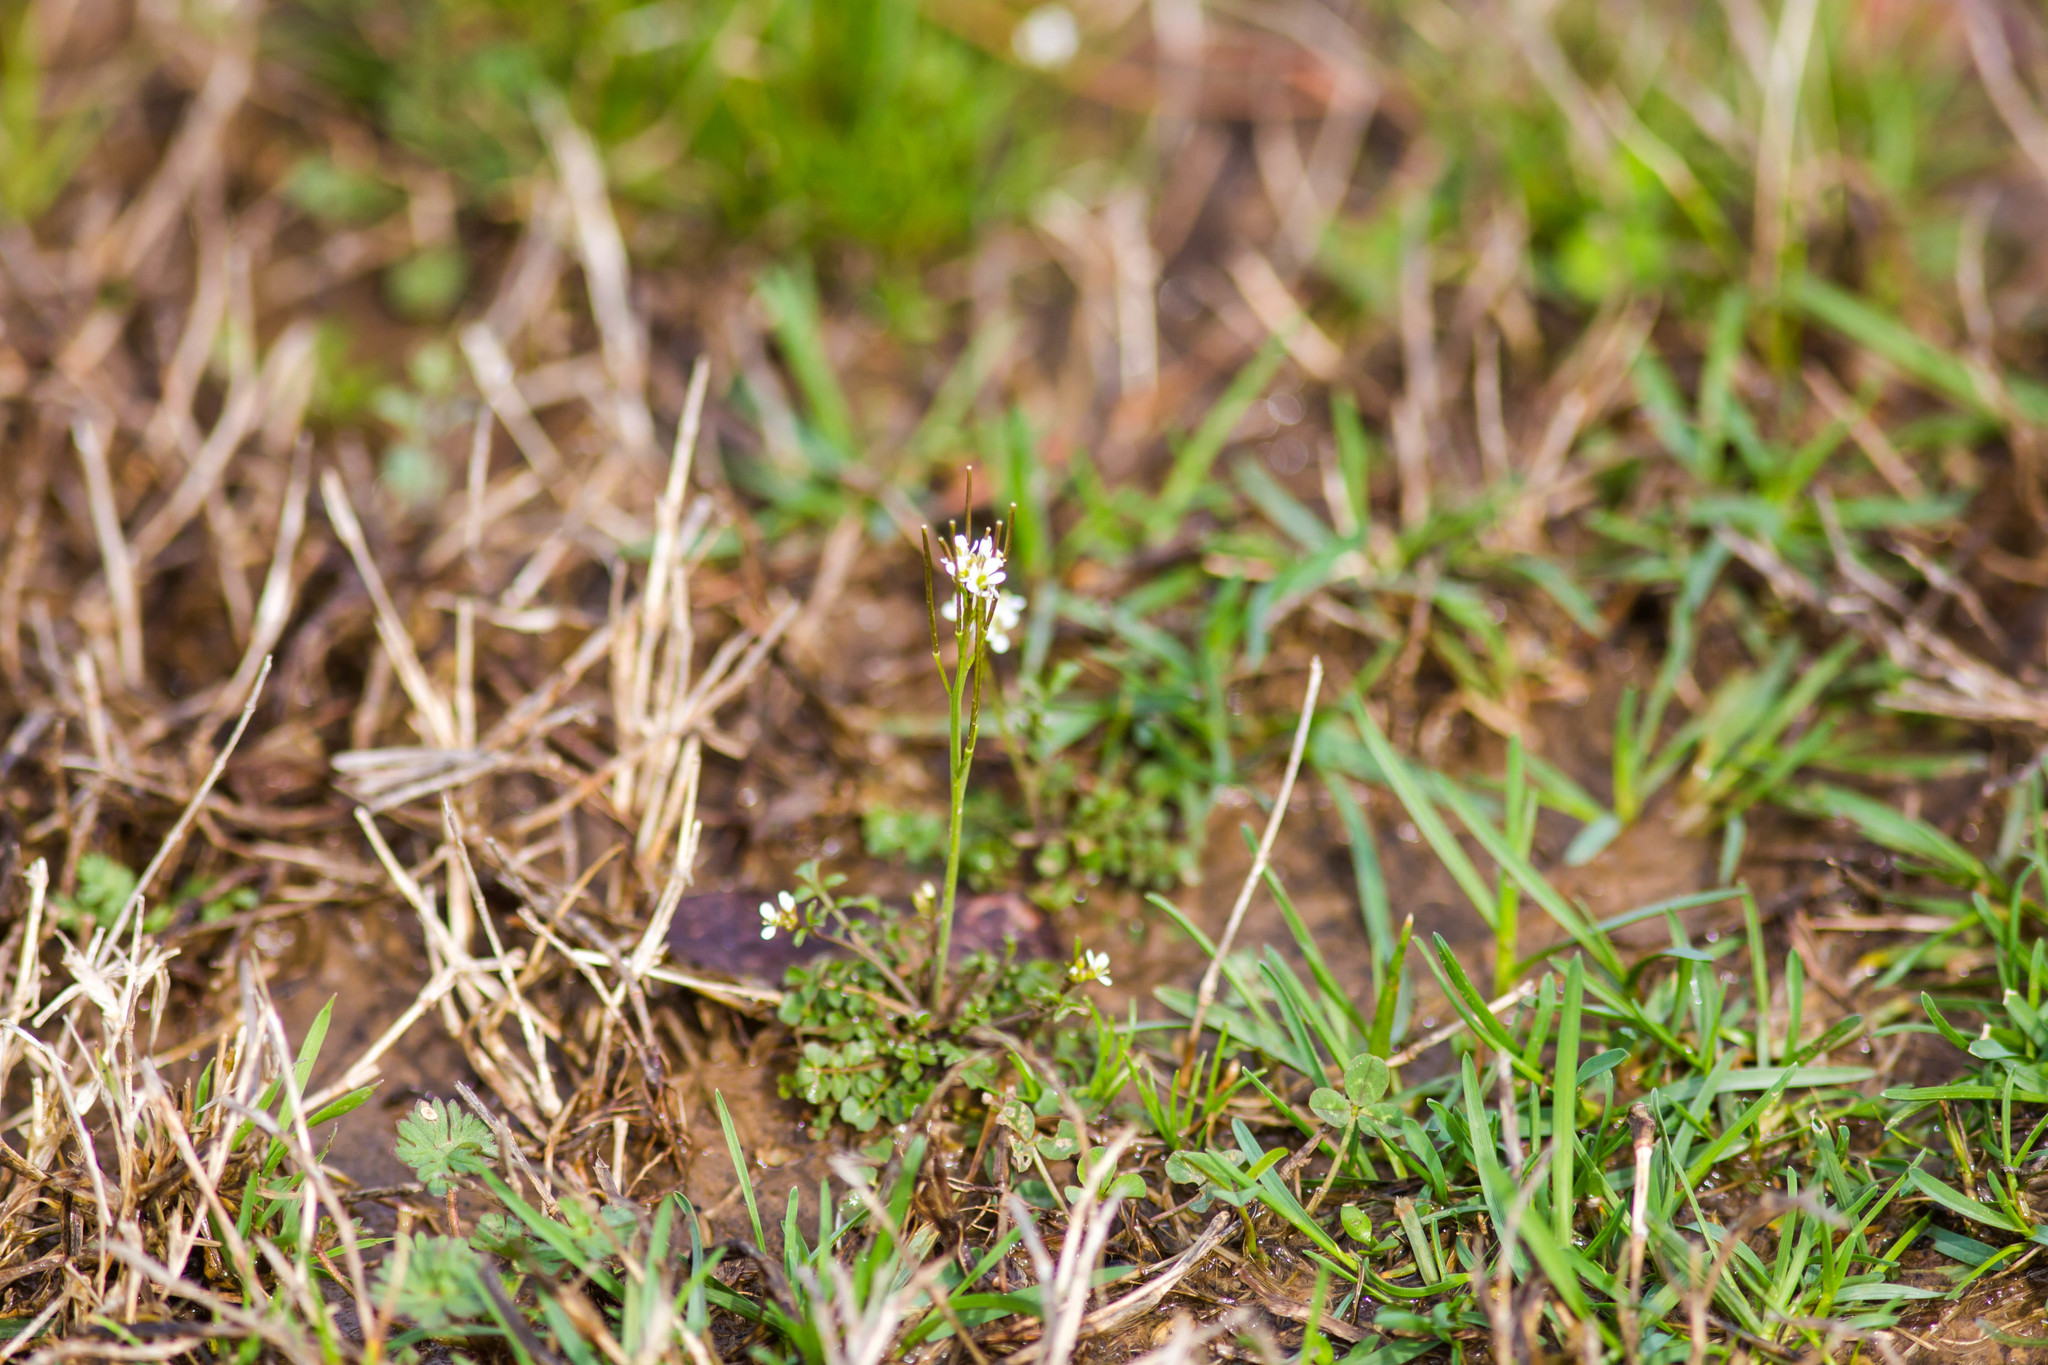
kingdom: Plantae
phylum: Tracheophyta
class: Magnoliopsida
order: Brassicales
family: Brassicaceae
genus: Cardamine
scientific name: Cardamine hirsuta
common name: Hairy bittercress
